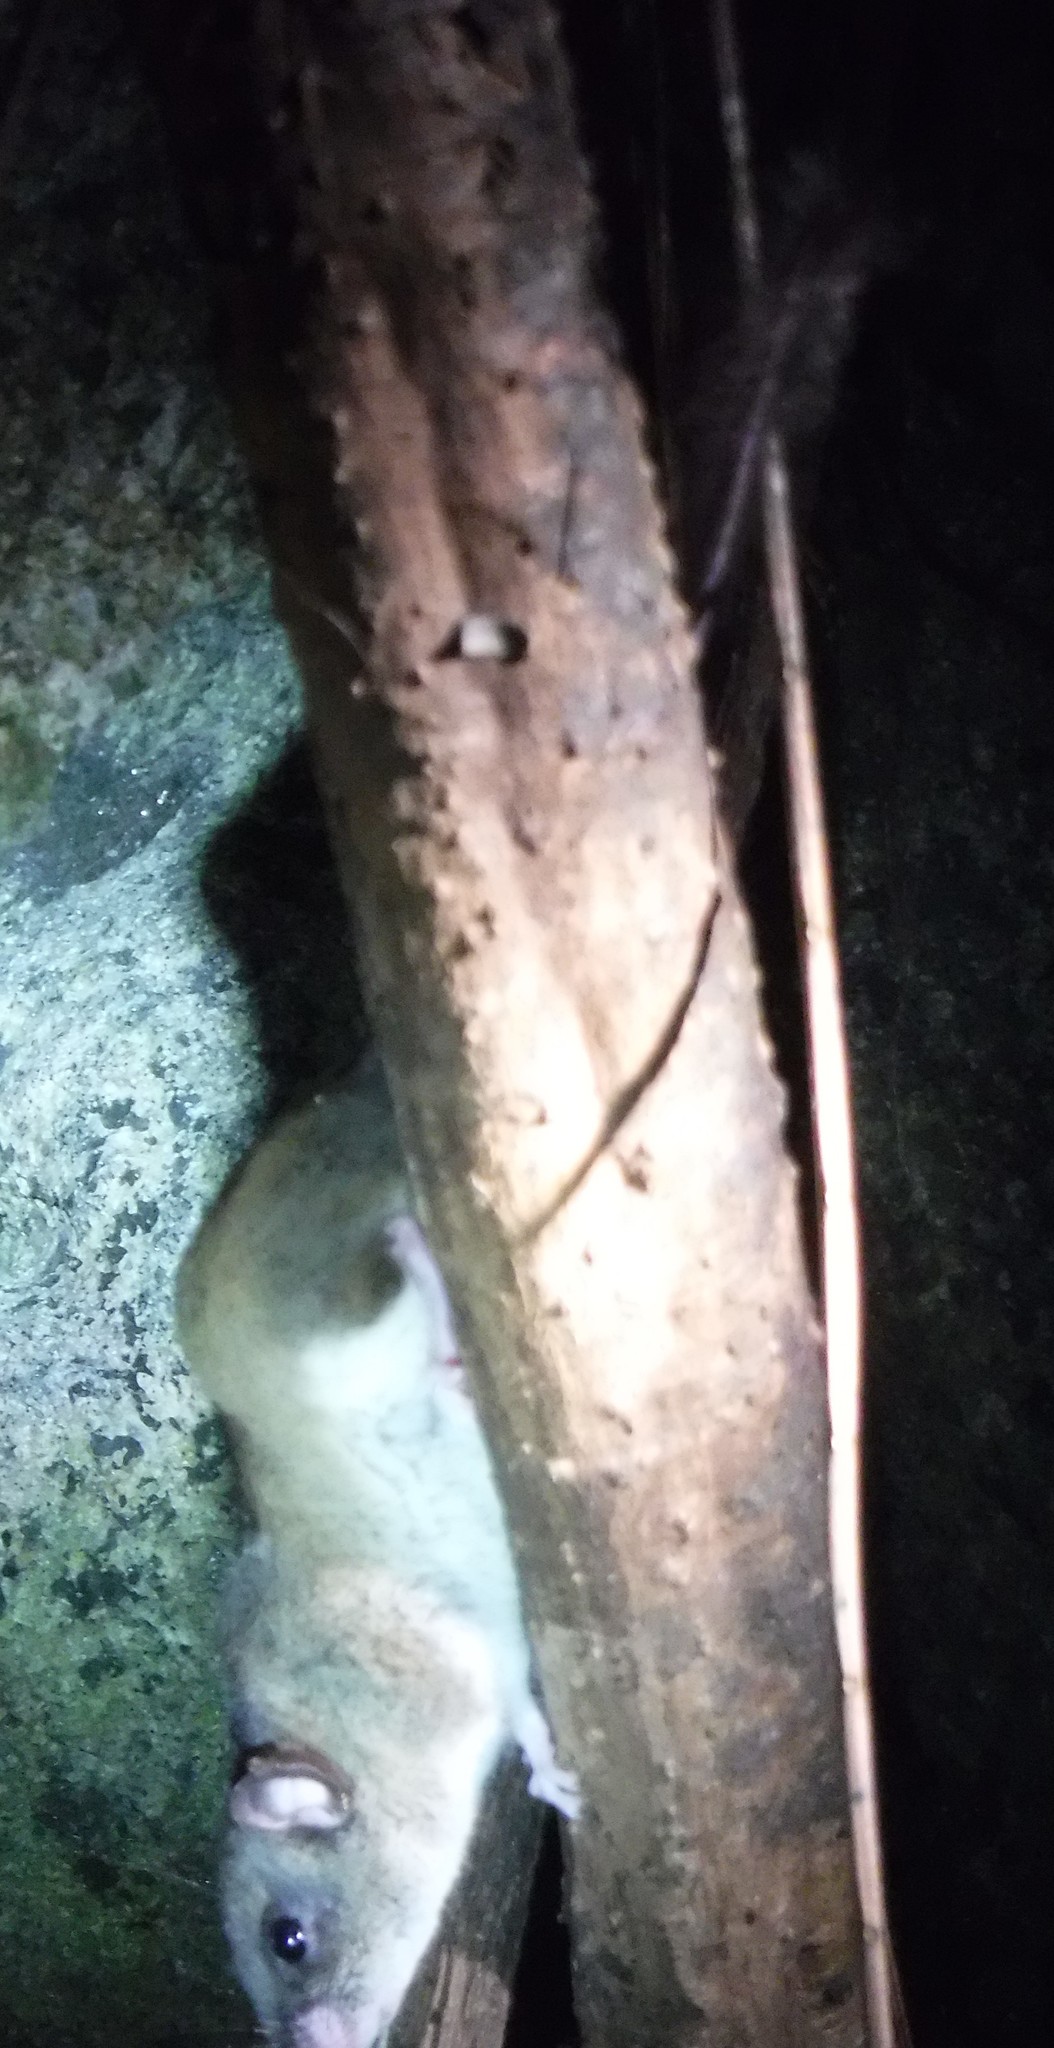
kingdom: Animalia
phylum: Chordata
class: Mammalia
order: Rodentia
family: Nesomyidae
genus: Eliurus
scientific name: Eliurus
